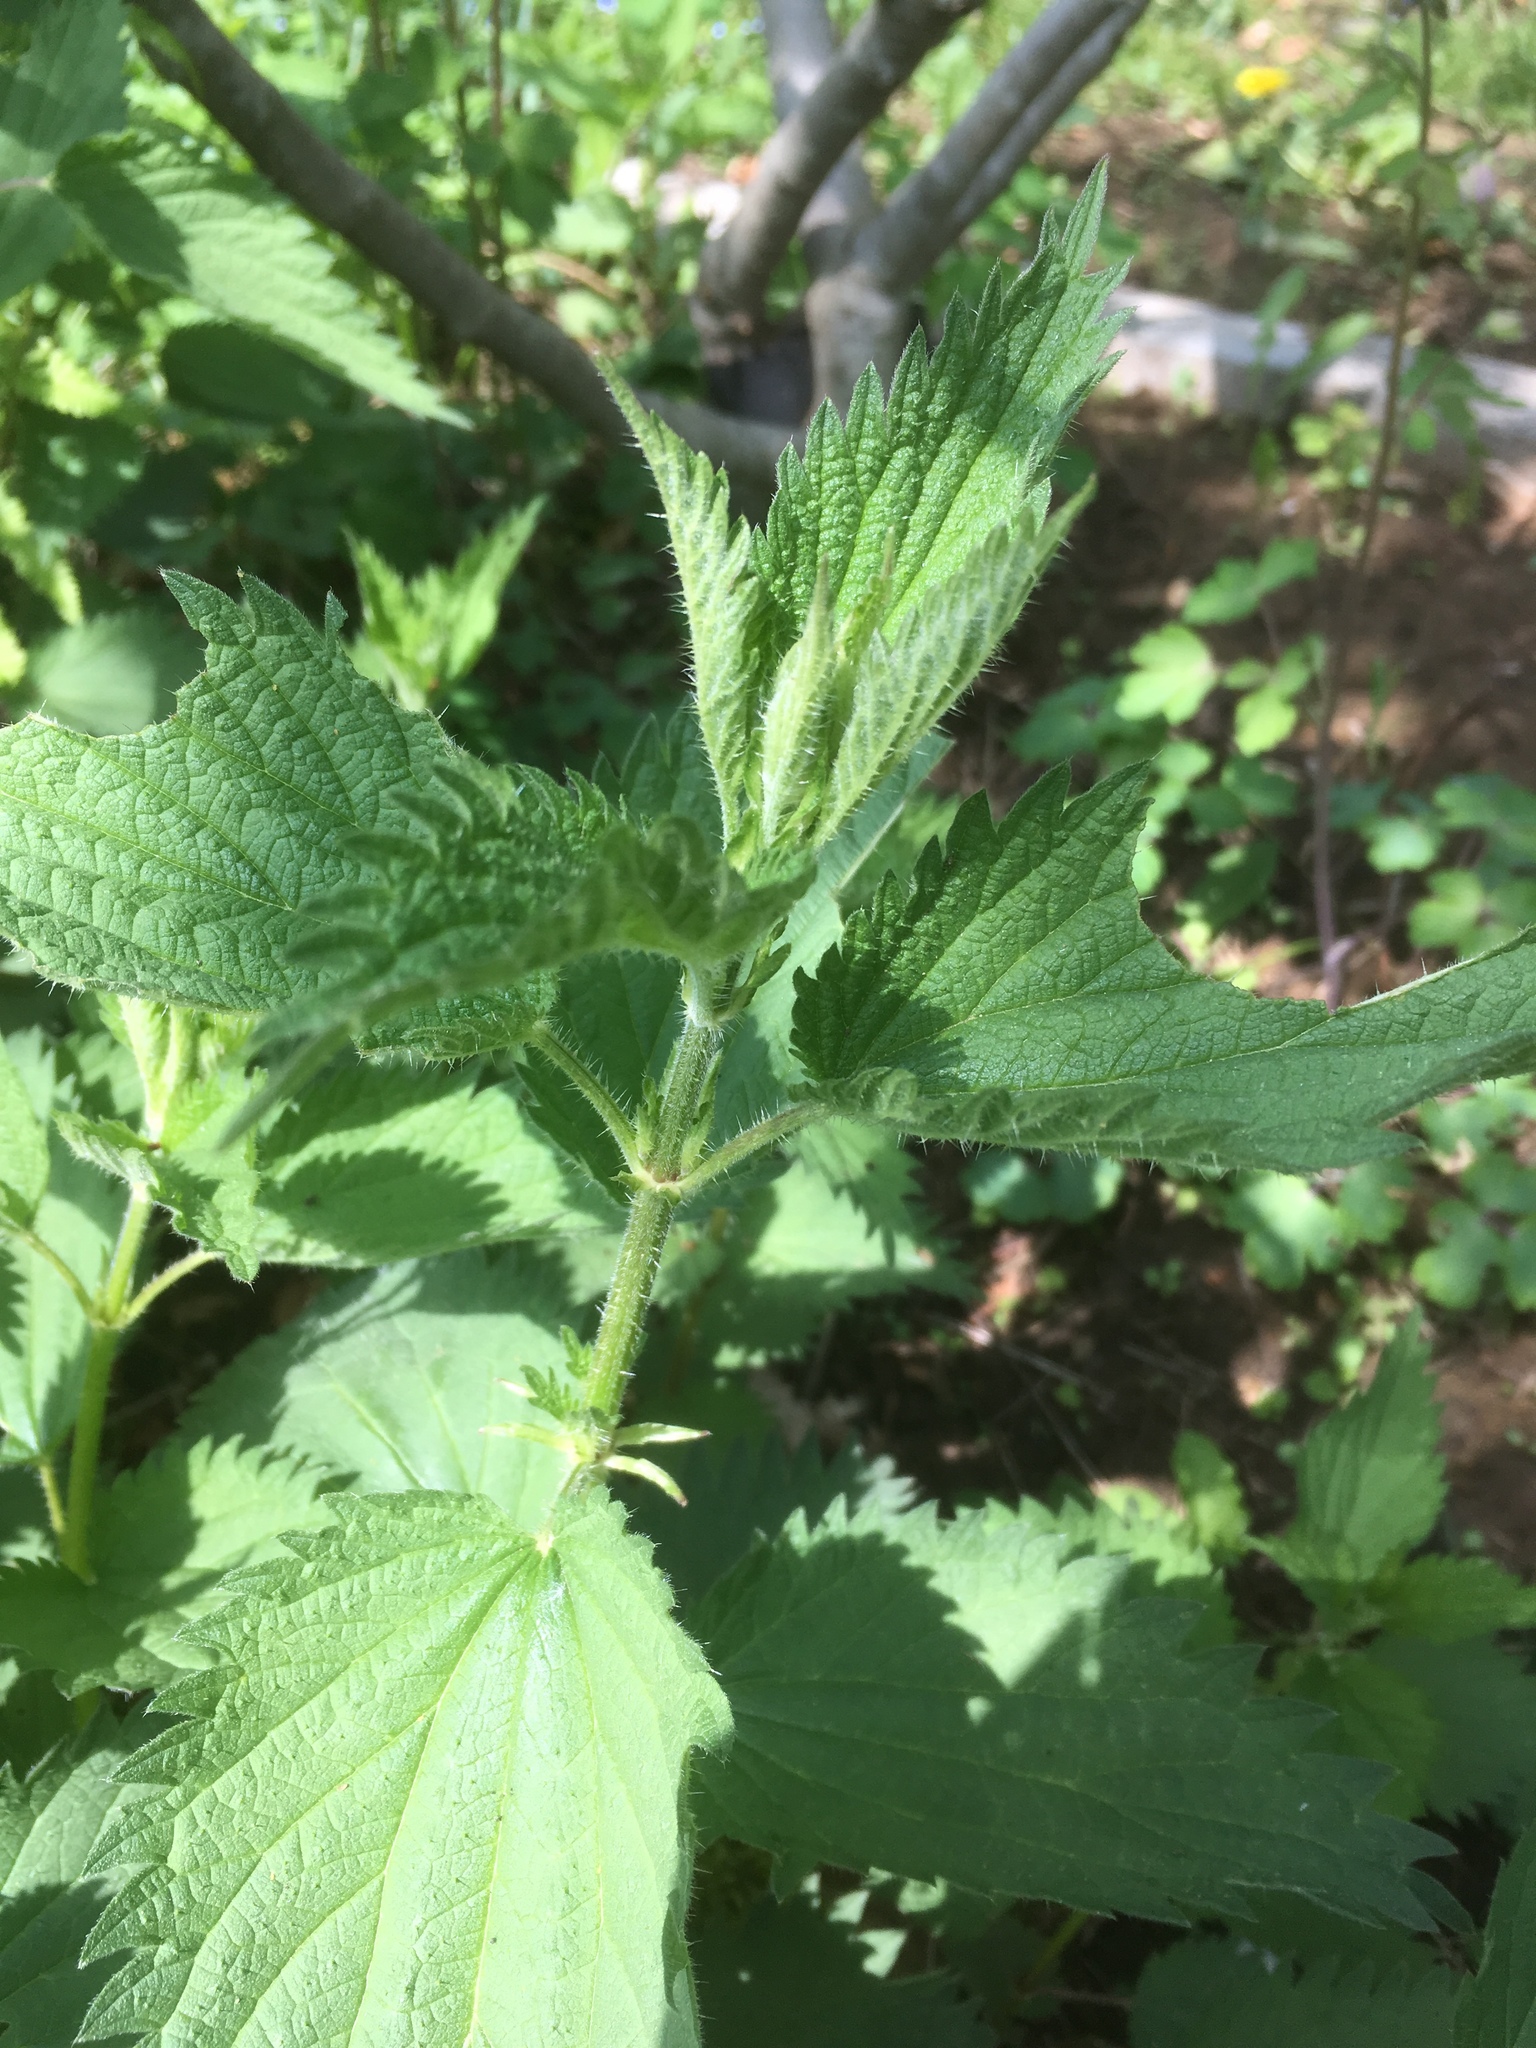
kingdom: Plantae
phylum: Tracheophyta
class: Magnoliopsida
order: Rosales
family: Urticaceae
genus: Urtica
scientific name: Urtica dioica
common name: Common nettle
